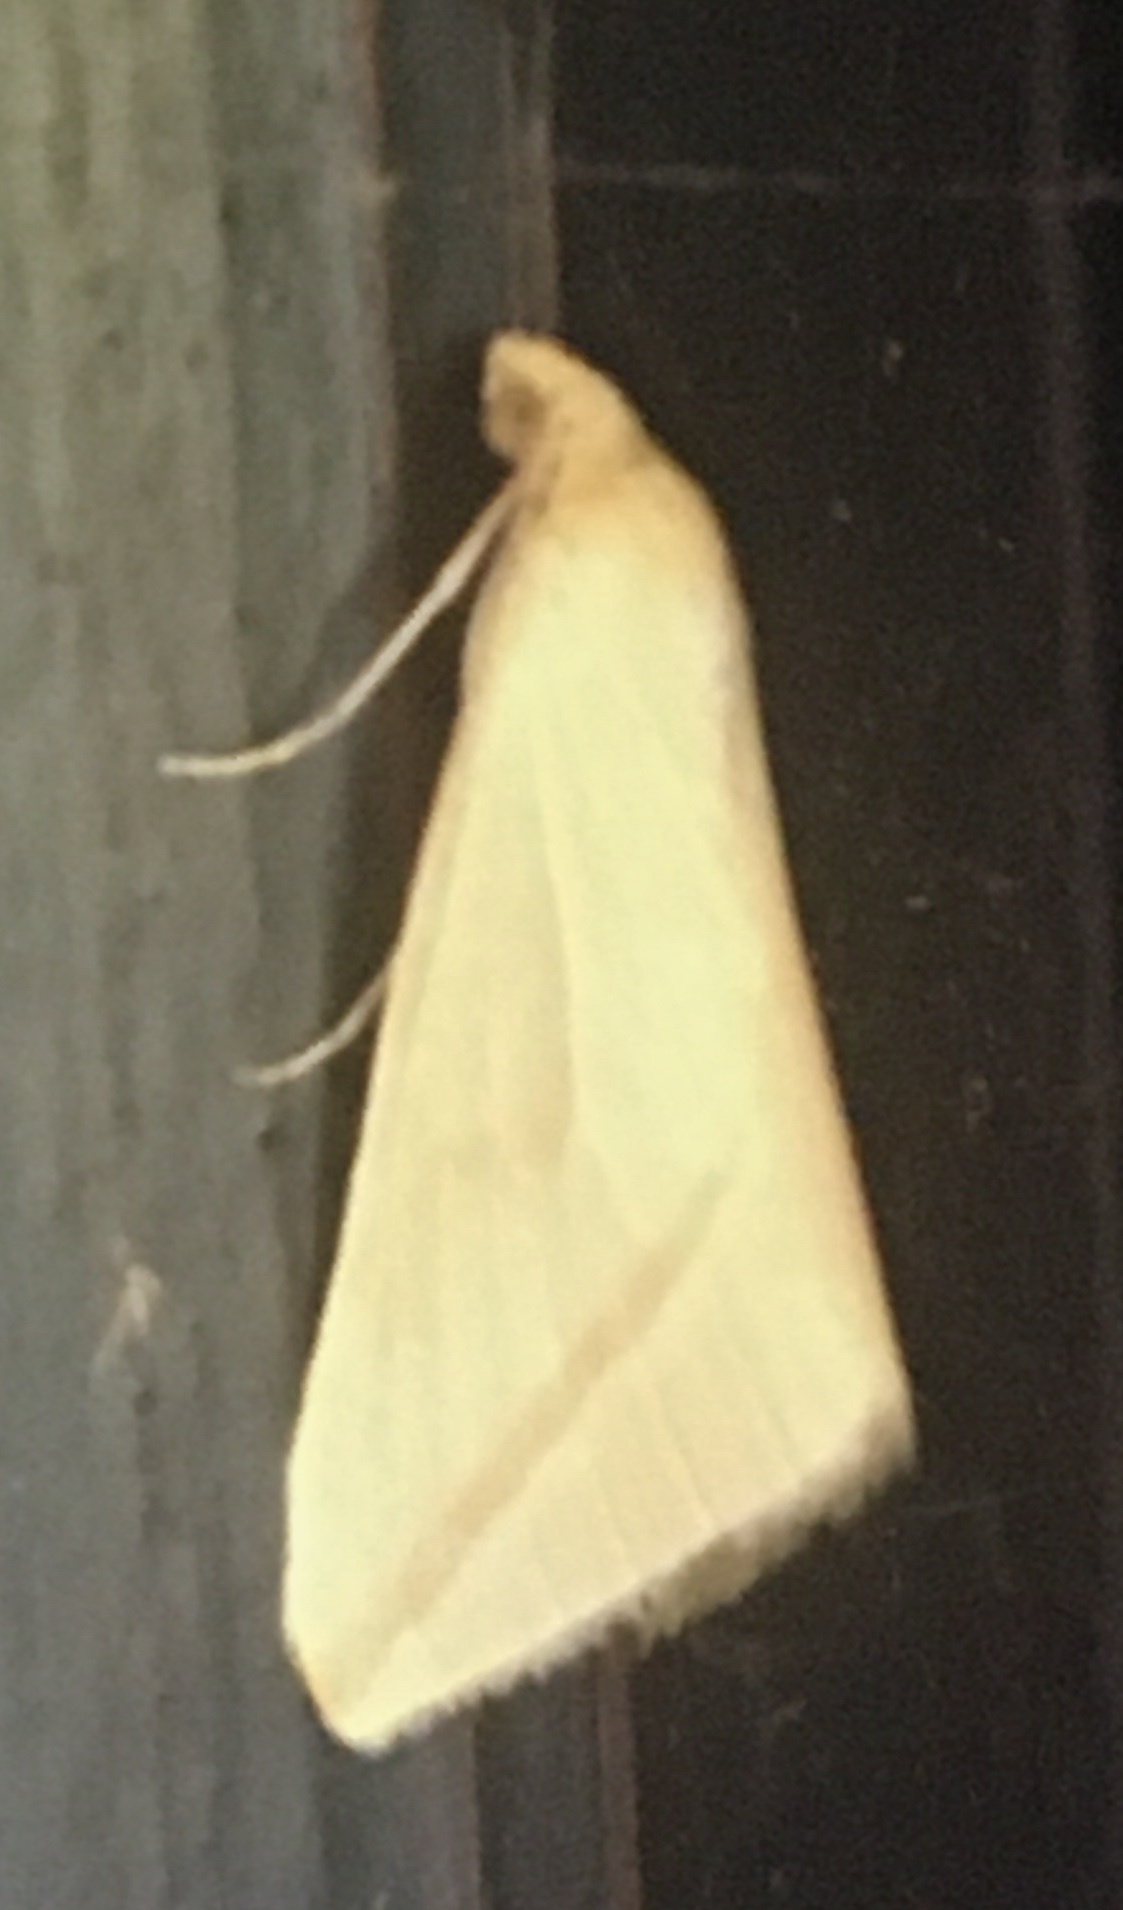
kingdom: Animalia
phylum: Arthropoda
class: Insecta
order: Lepidoptera
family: Geometridae
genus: Rhodometra
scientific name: Rhodometra sacraria
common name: Vestal
